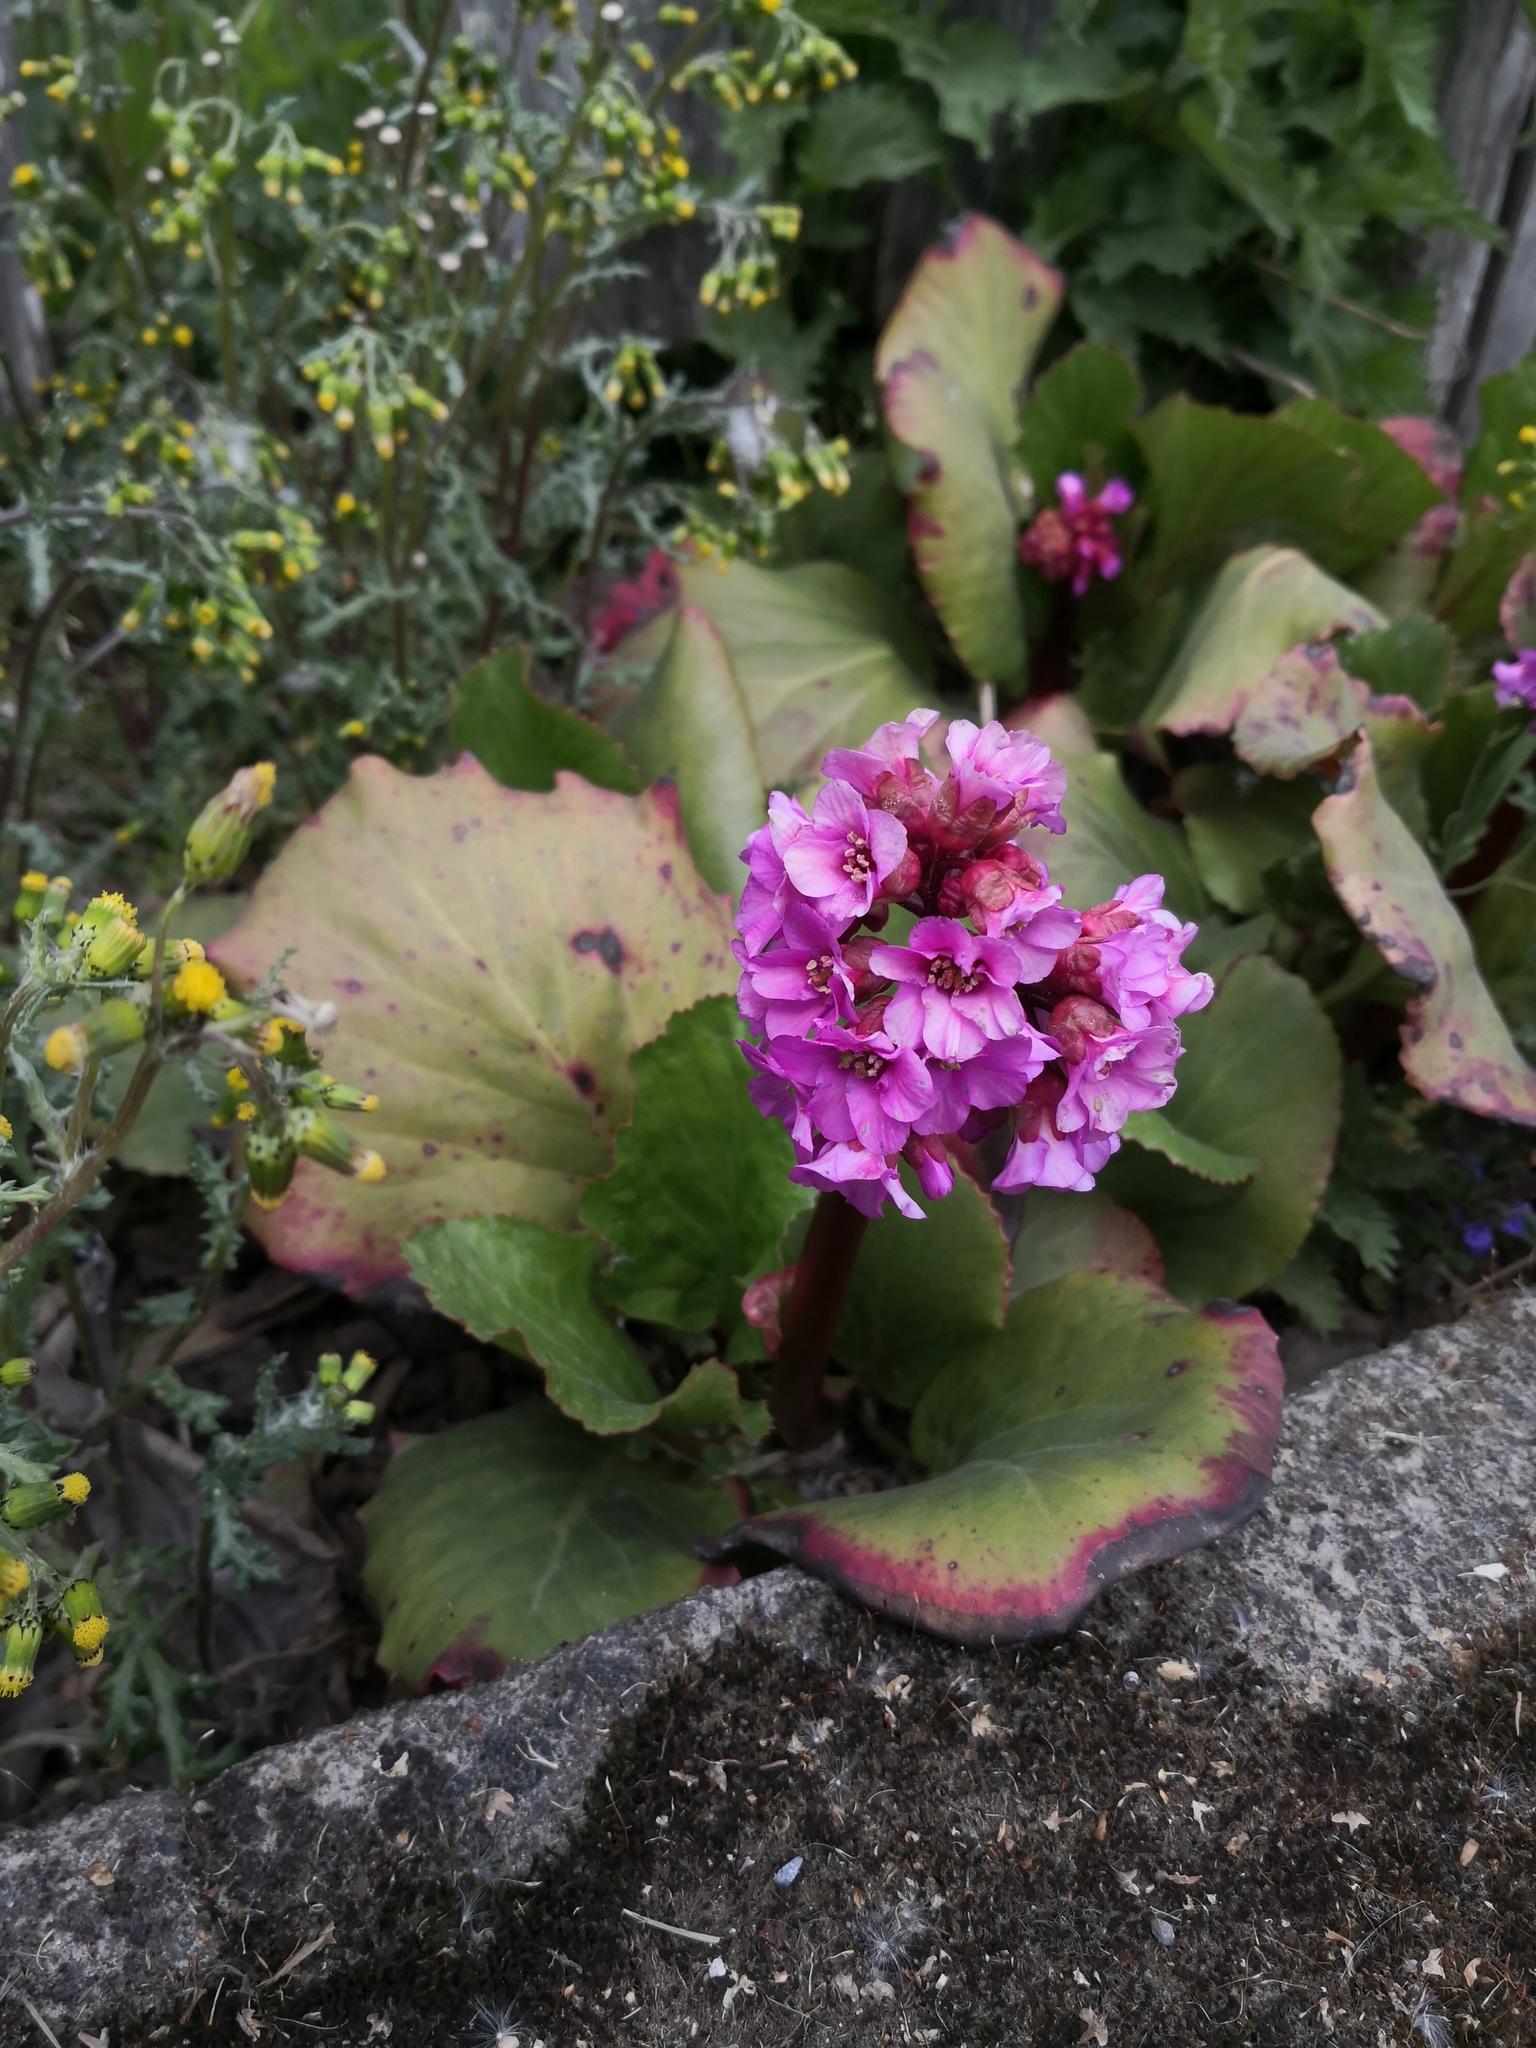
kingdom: Plantae
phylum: Tracheophyta
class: Magnoliopsida
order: Saxifragales
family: Saxifragaceae
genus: Bergenia
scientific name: Bergenia crassifolia
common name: Elephant-ears
